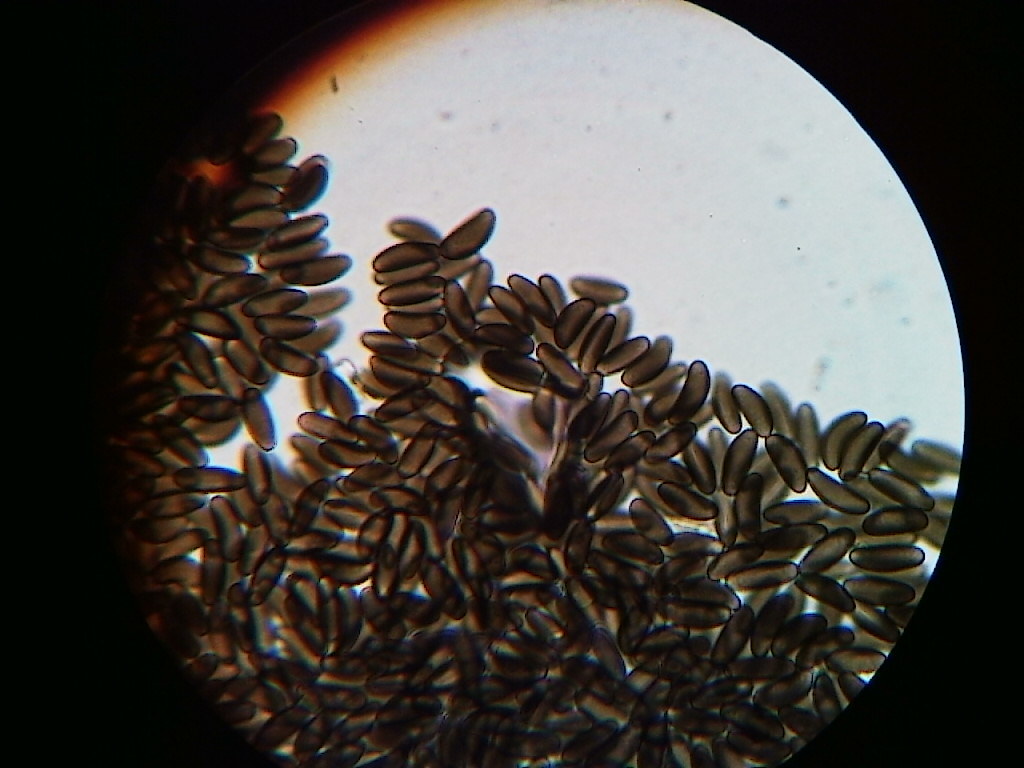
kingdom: Fungi
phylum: Ascomycota
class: Sordariomycetes
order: Xylariales
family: Hypoxylaceae
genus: Pyrenomyxa
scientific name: Pyrenomyxa picea
